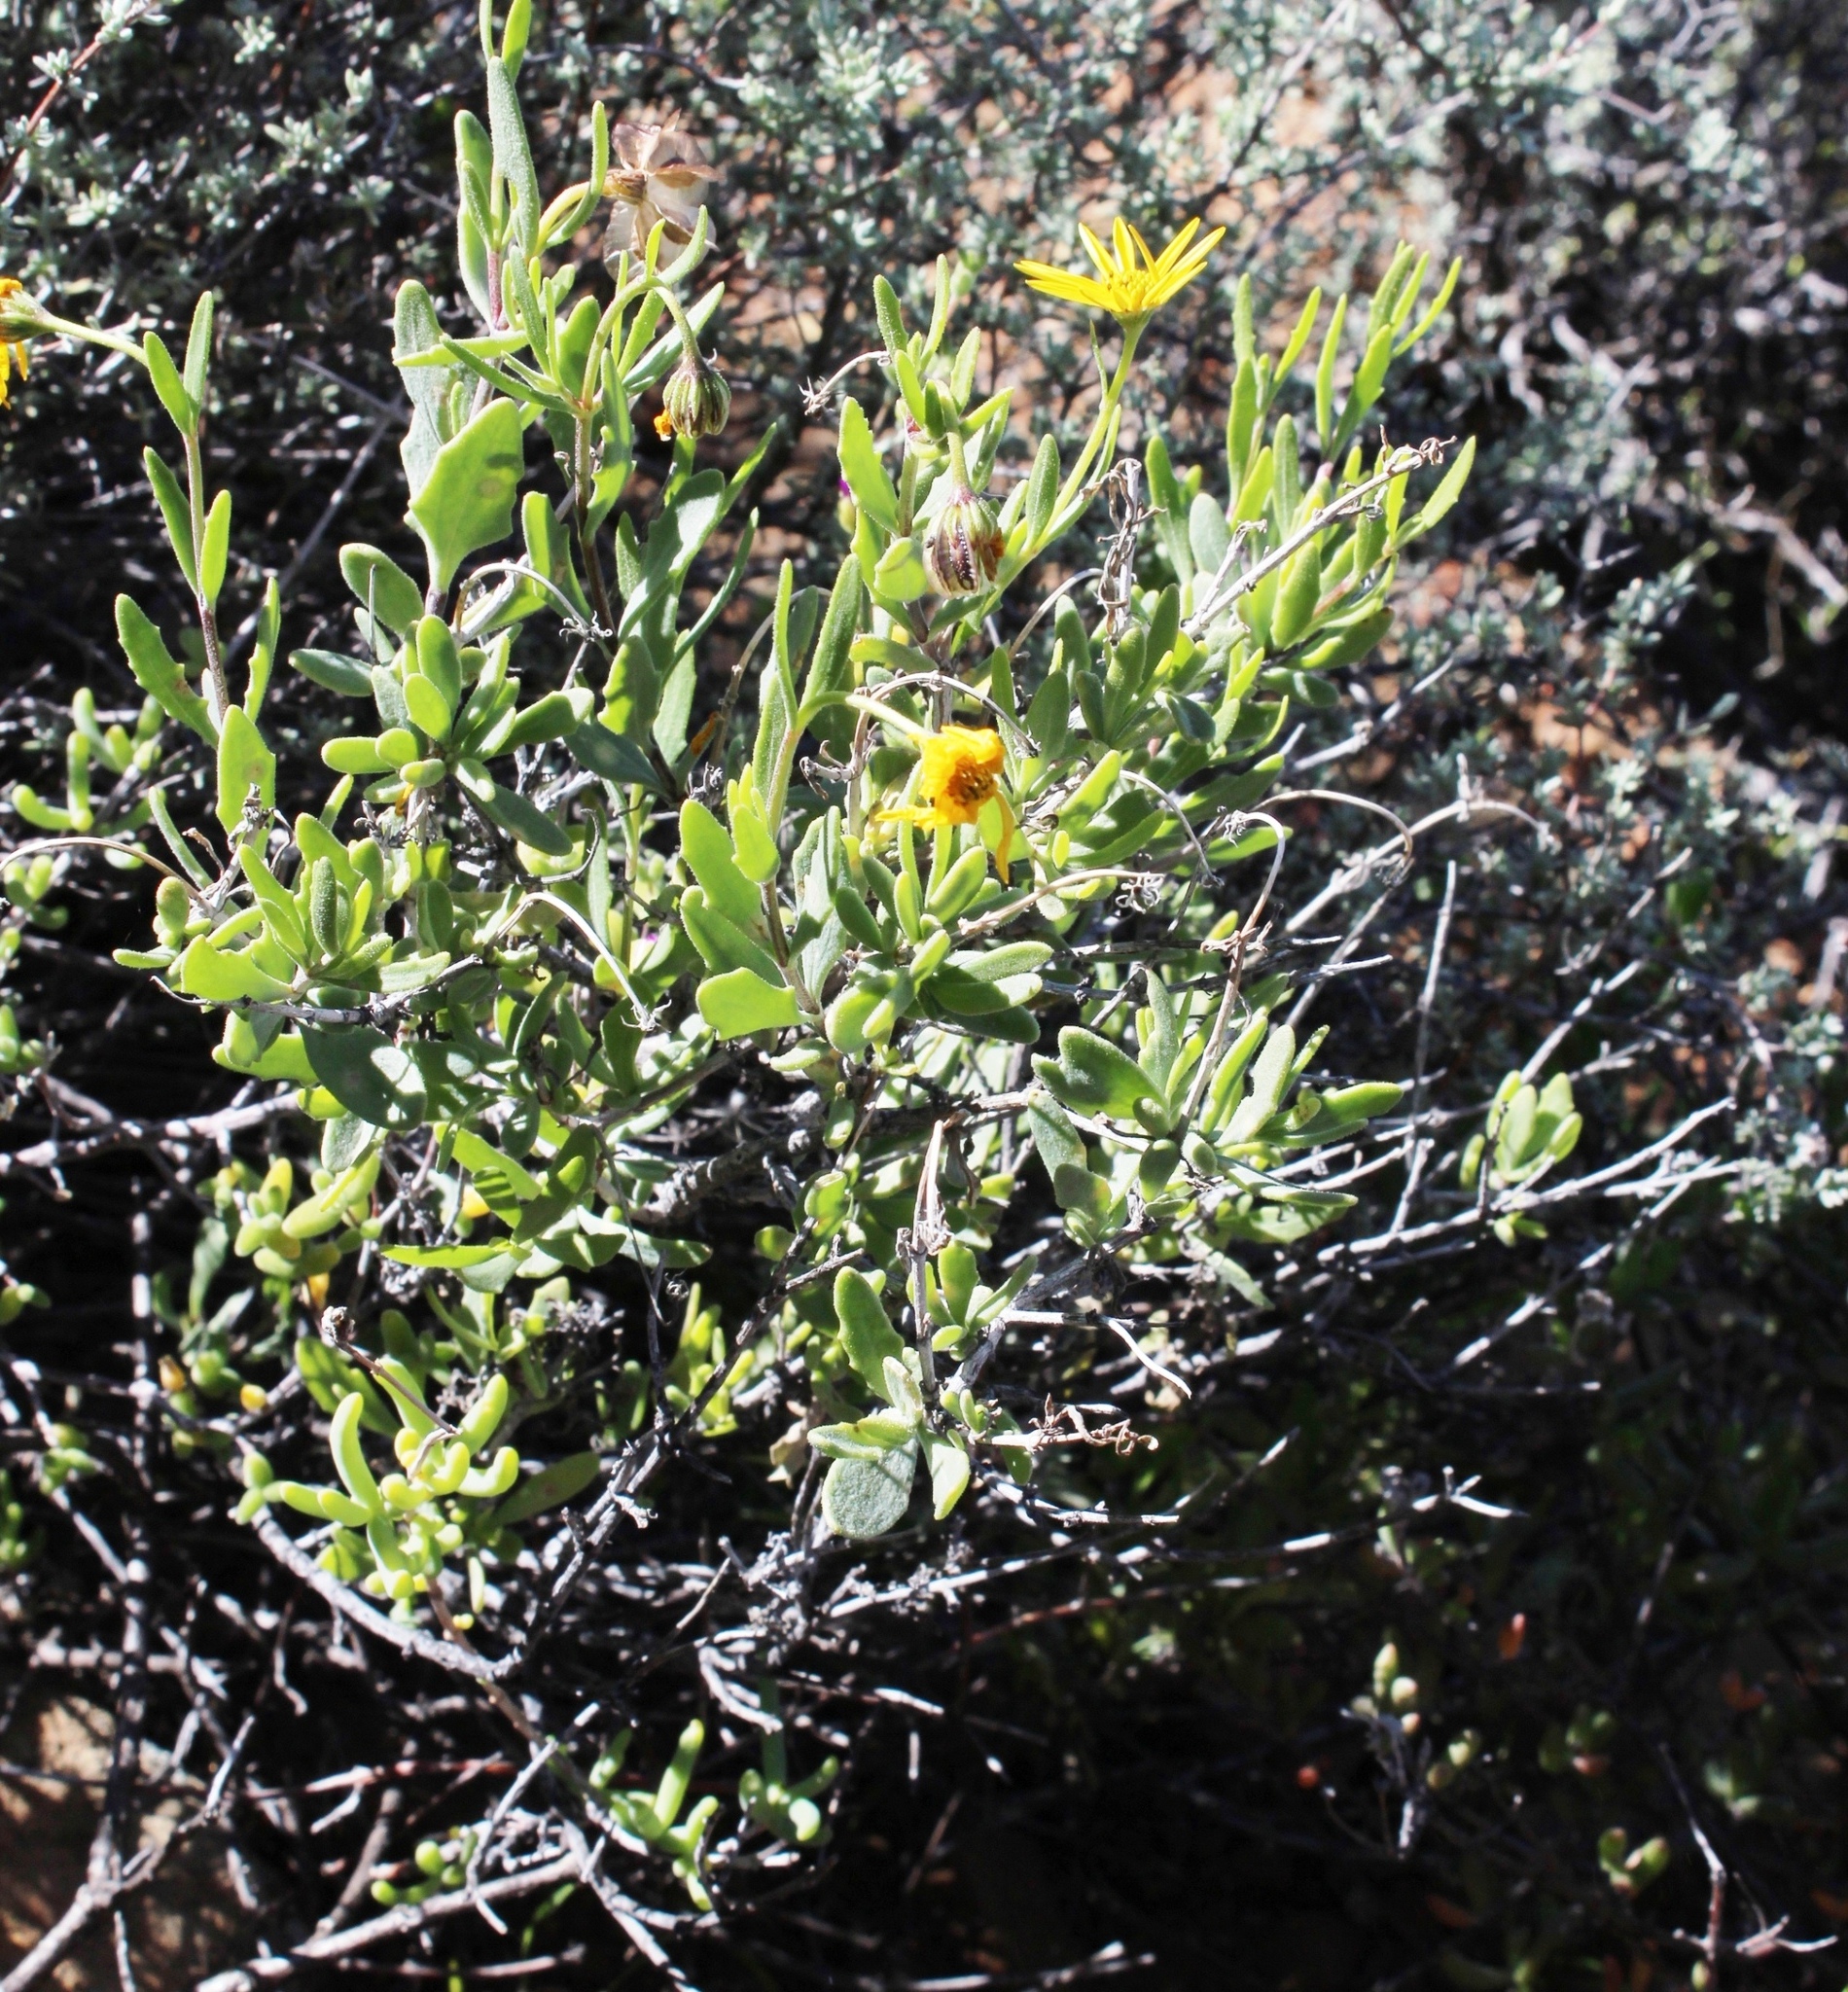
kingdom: Plantae
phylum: Tracheophyta
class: Magnoliopsida
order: Asterales
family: Asteraceae
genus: Osteospermum
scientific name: Osteospermum sinuatum
